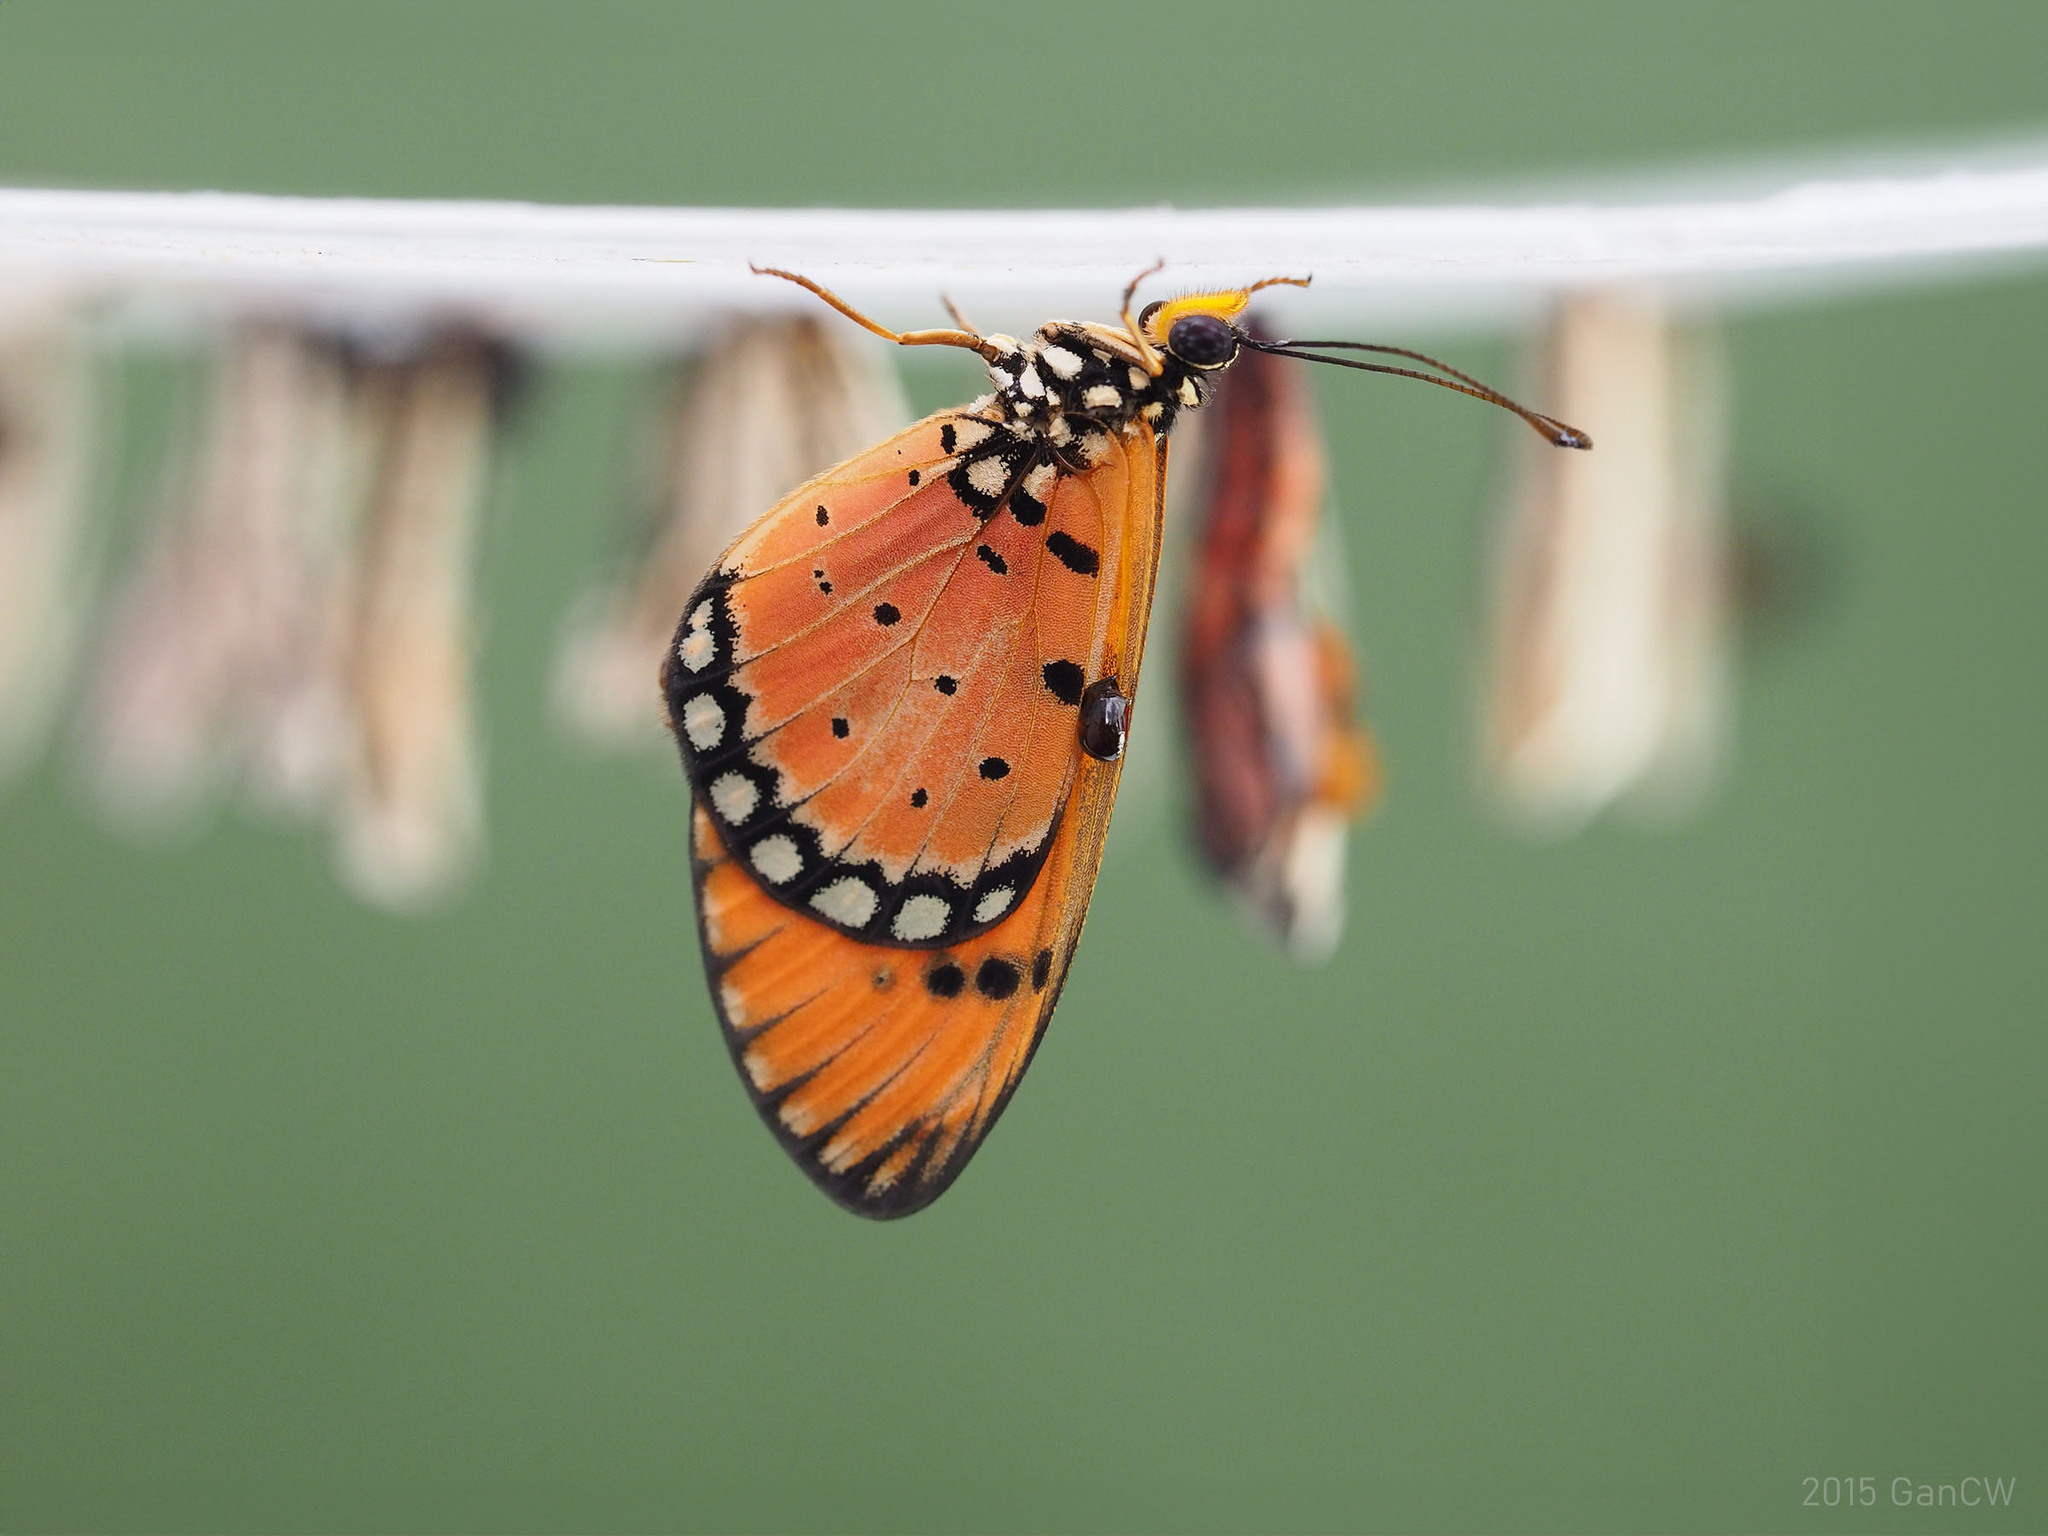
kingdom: Animalia
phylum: Arthropoda
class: Insecta
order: Lepidoptera
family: Nymphalidae
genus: Acraea
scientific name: Acraea terpsicore
